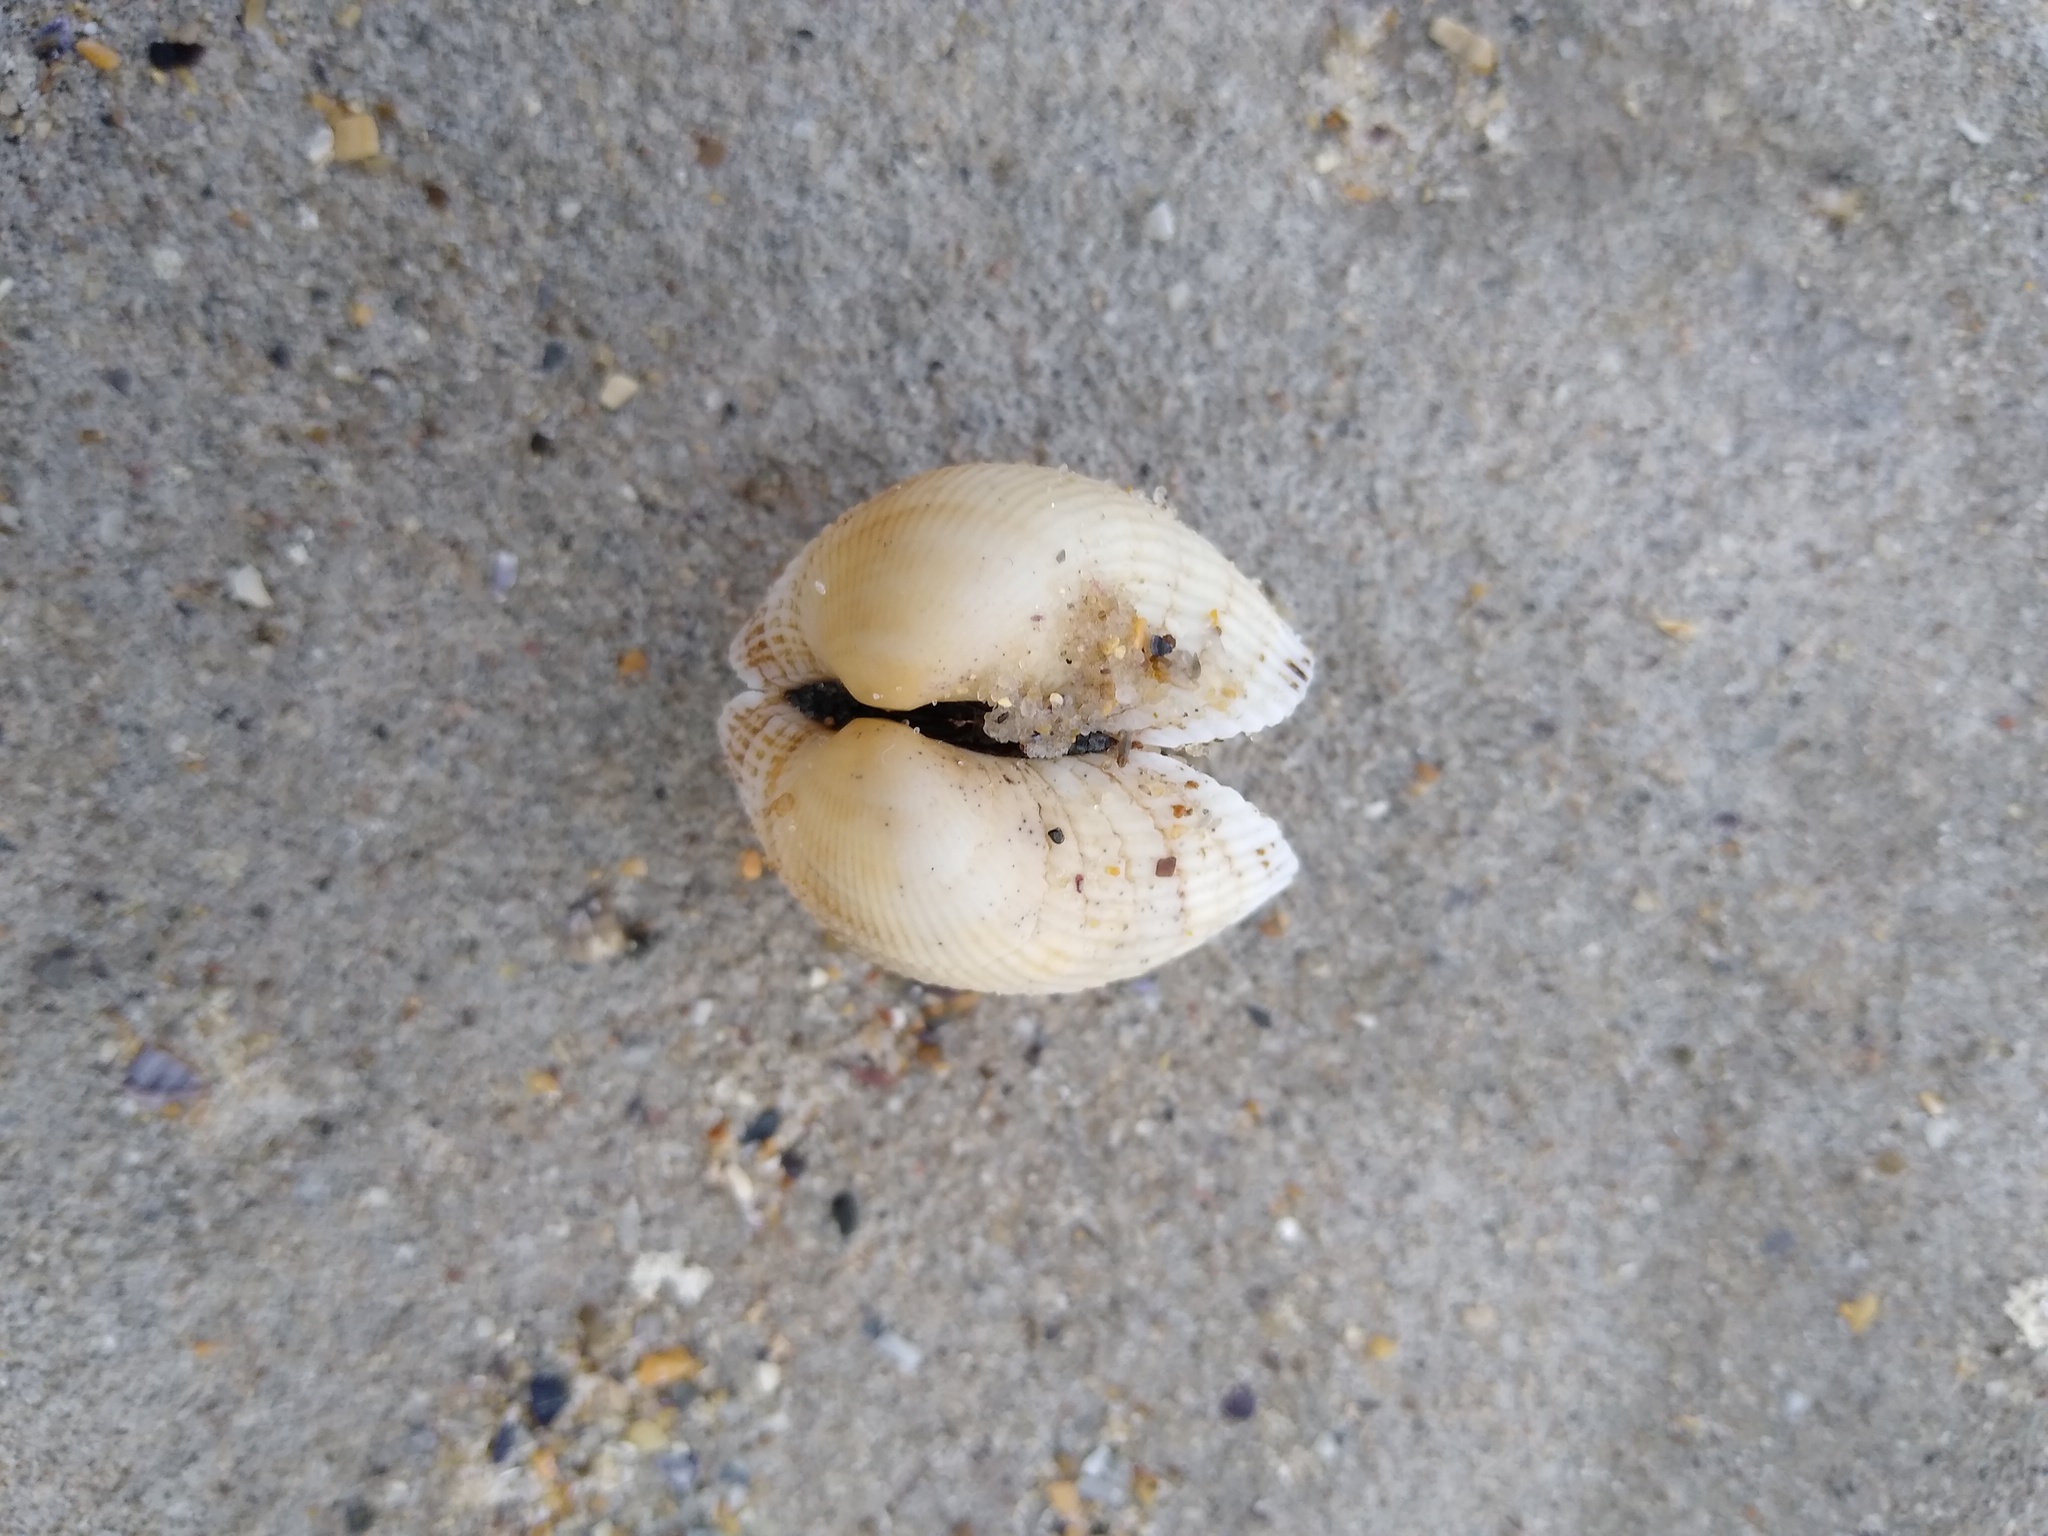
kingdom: Animalia
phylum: Mollusca
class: Bivalvia
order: Arcida
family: Arcidae
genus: Anadara
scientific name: Anadara kagoshimensis
